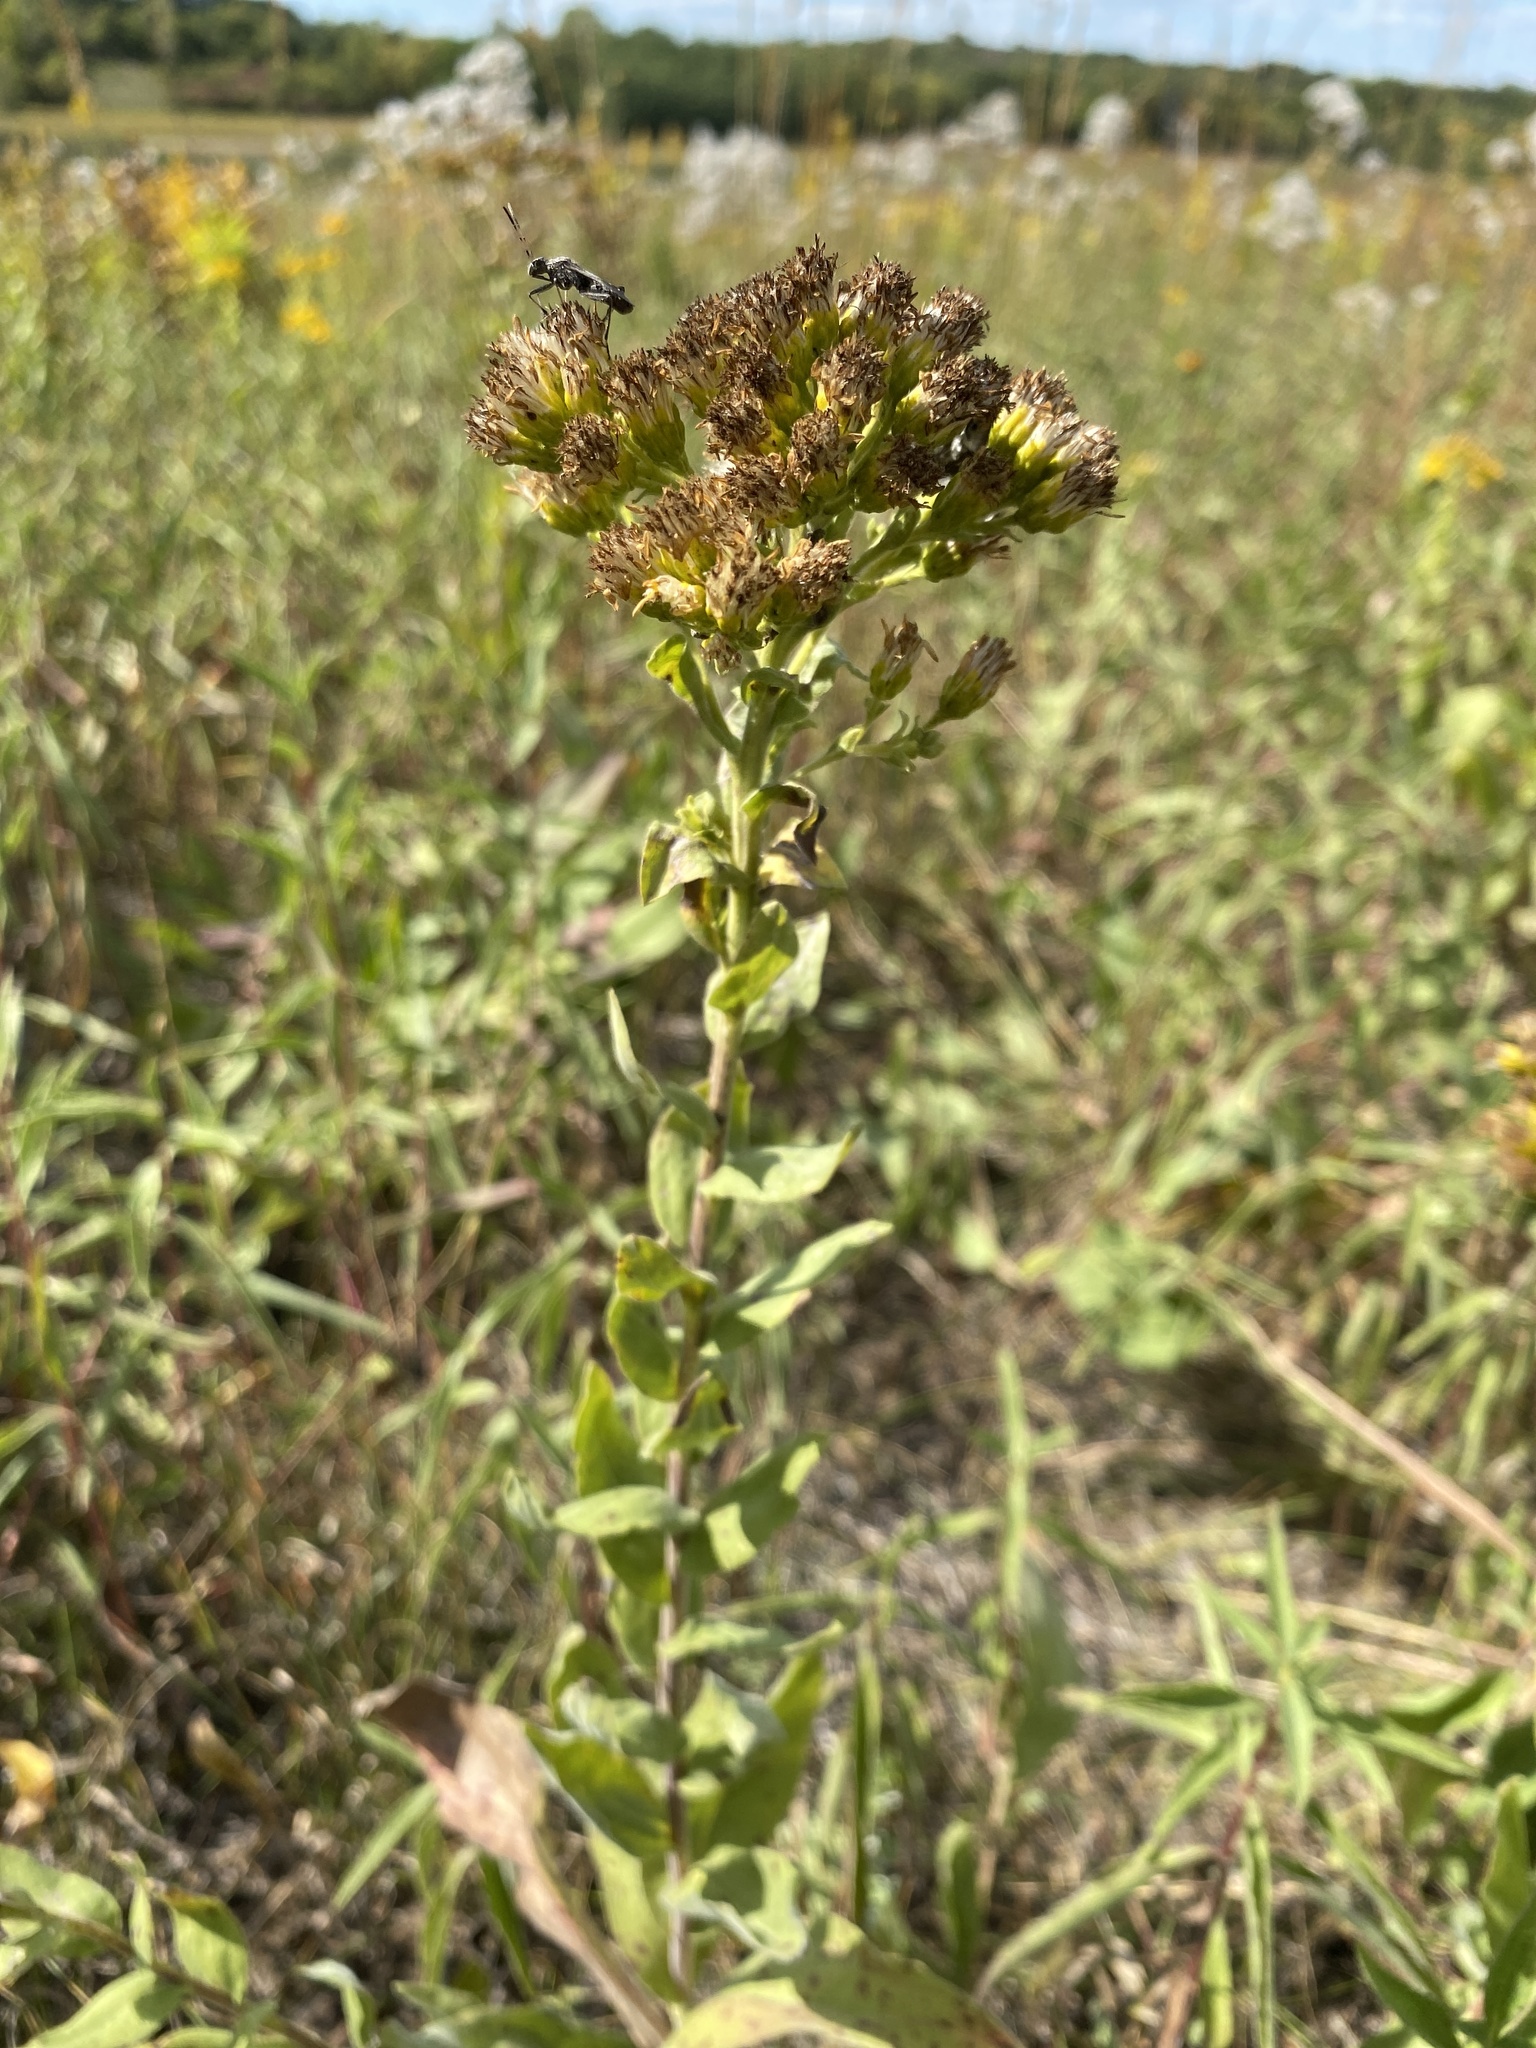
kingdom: Plantae
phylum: Tracheophyta
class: Magnoliopsida
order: Asterales
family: Asteraceae
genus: Solidago
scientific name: Solidago rigida
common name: Rigid goldenrod
